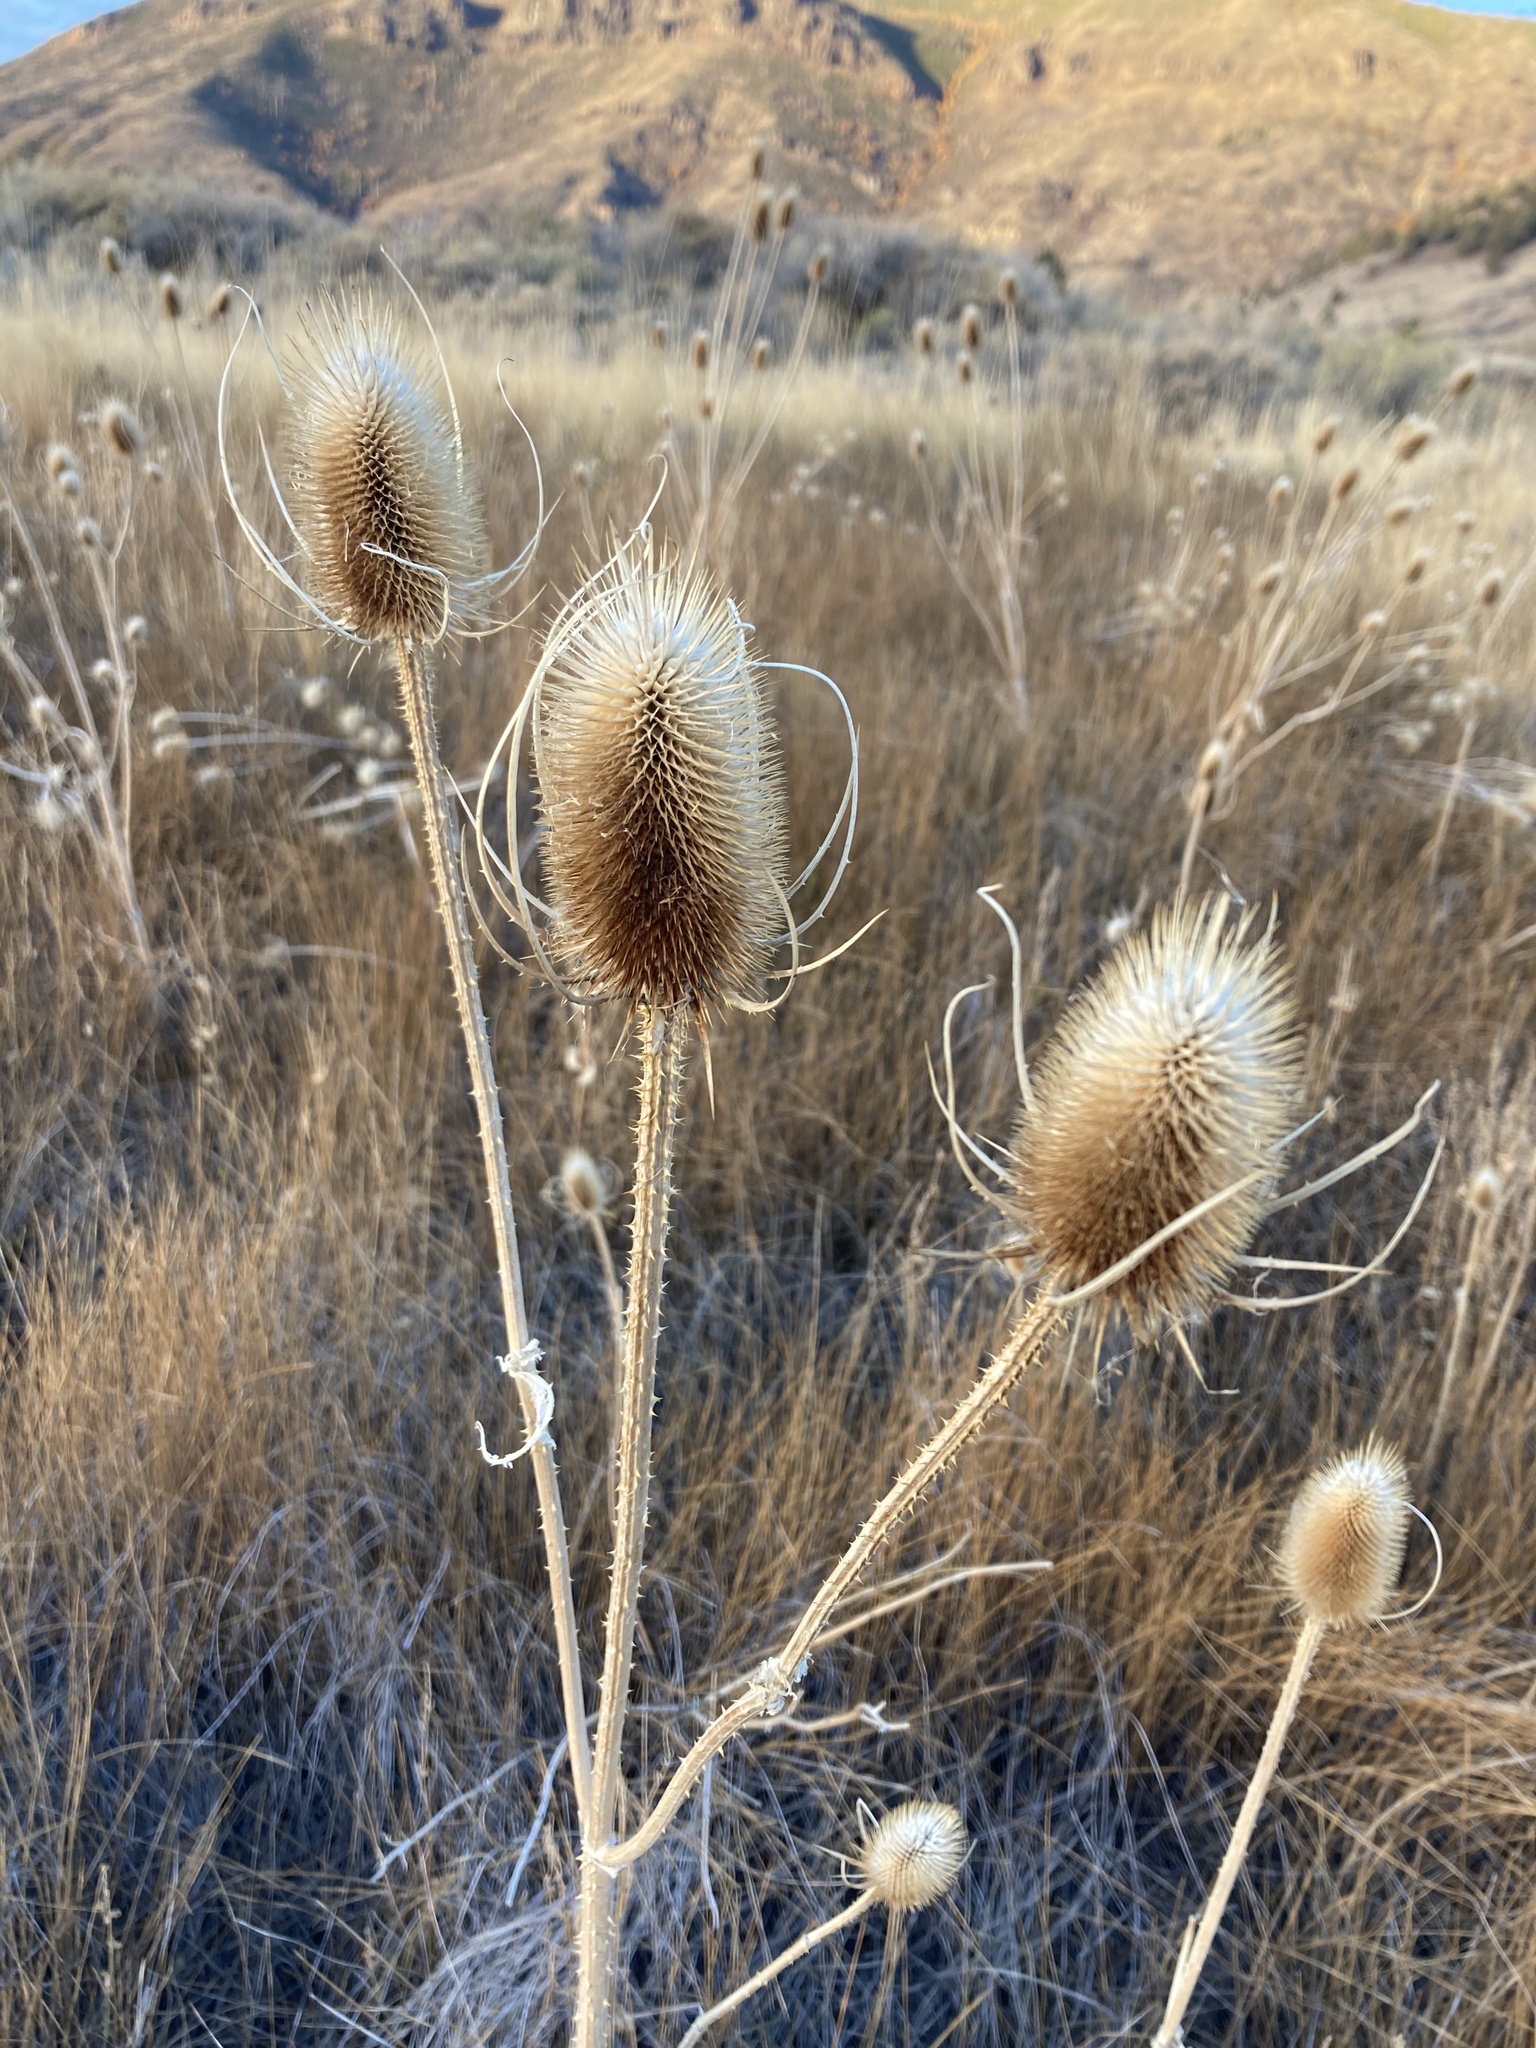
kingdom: Plantae
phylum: Tracheophyta
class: Magnoliopsida
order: Dipsacales
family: Caprifoliaceae
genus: Dipsacus
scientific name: Dipsacus fullonum
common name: Teasel
